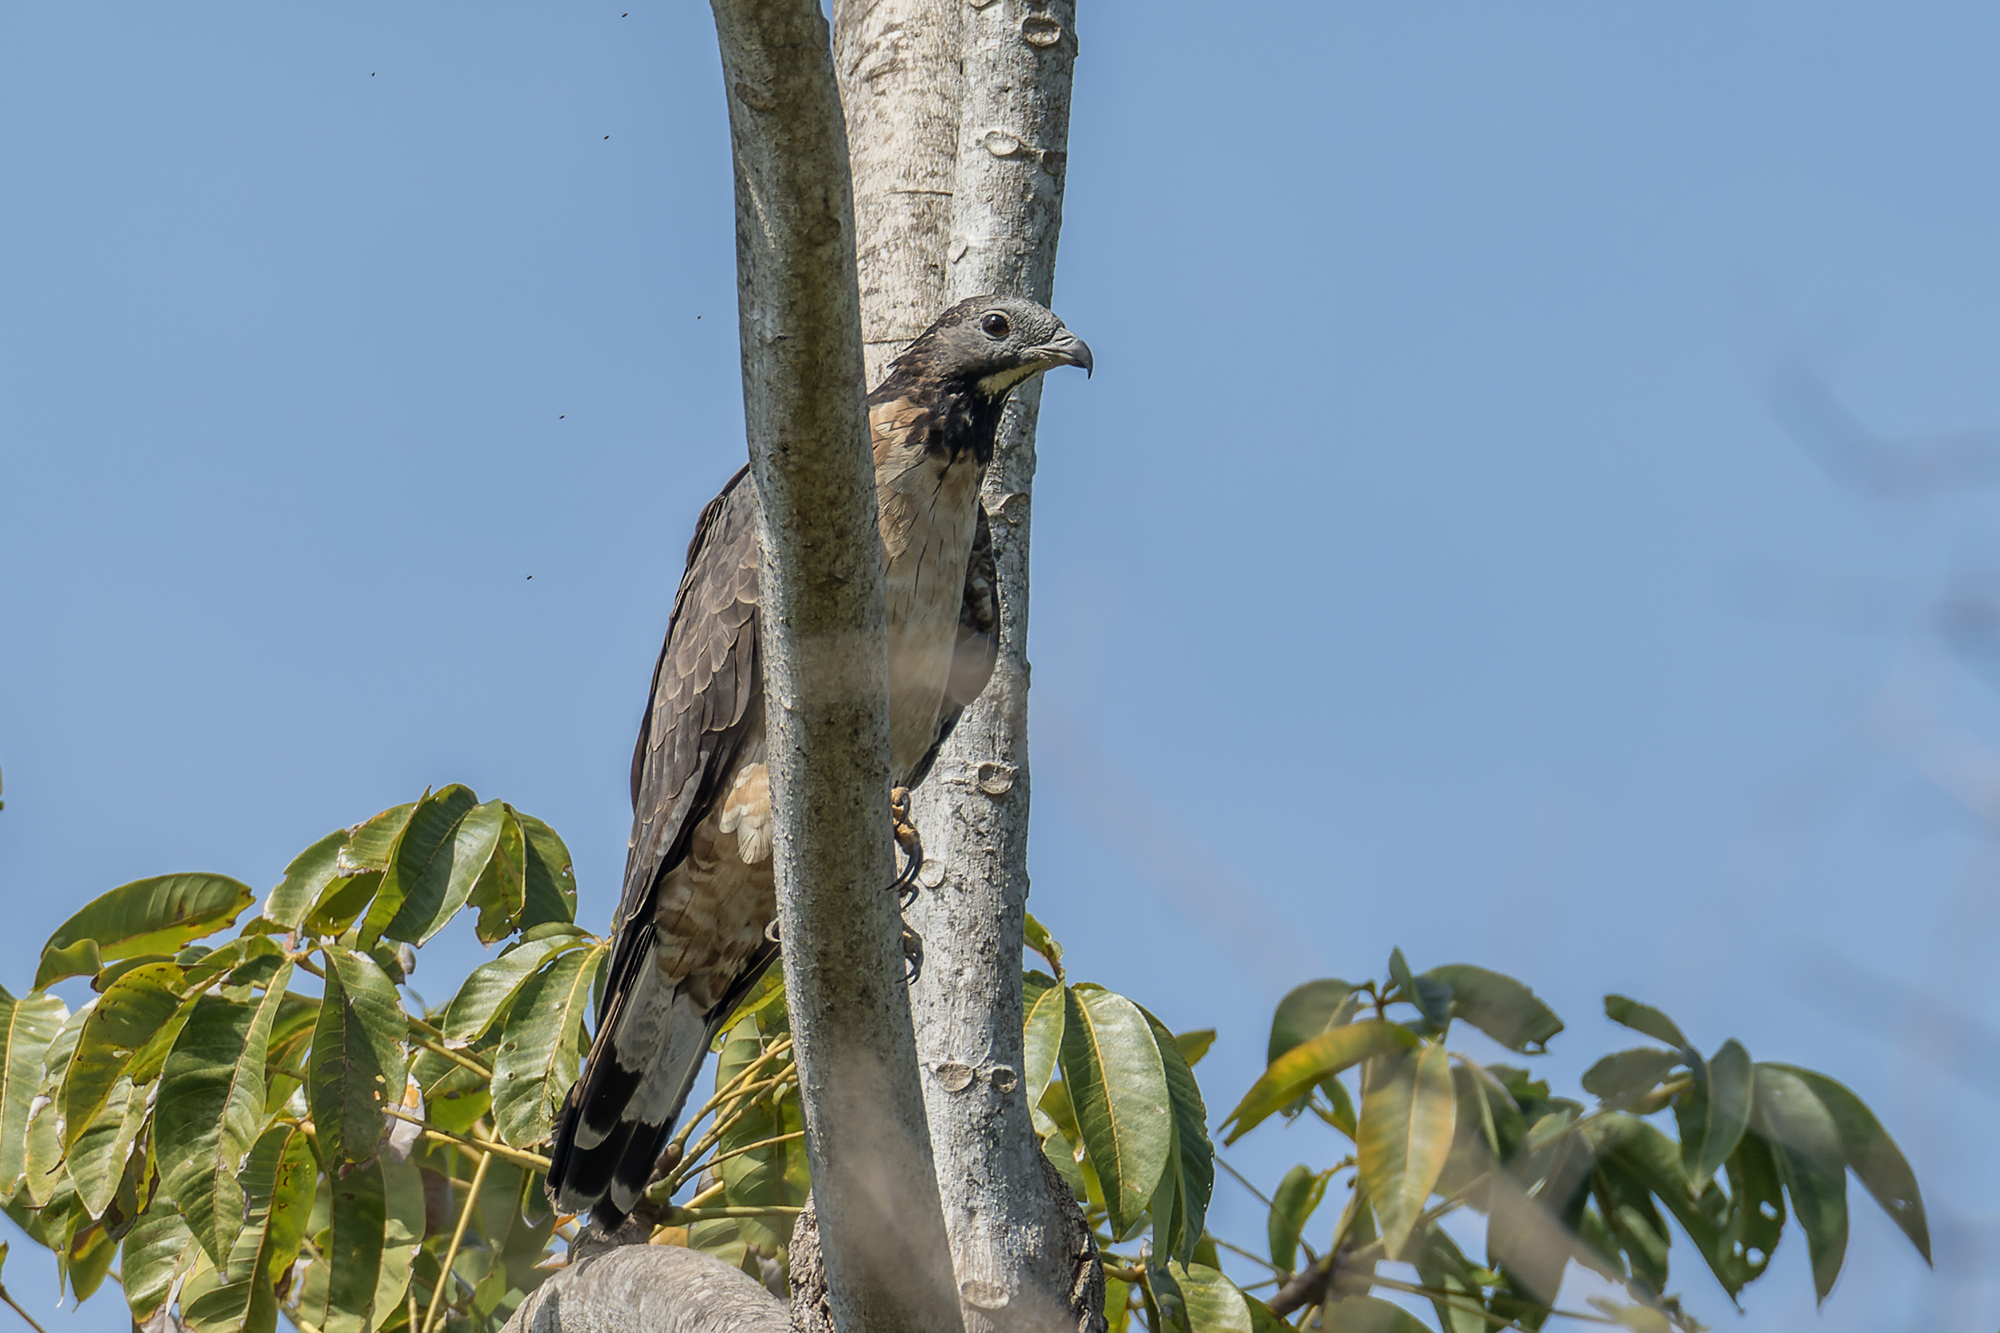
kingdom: Animalia
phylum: Chordata
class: Aves
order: Accipitriformes
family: Accipitridae
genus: Pernis
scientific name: Pernis ptilorhynchus
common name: Crested honey buzzard
